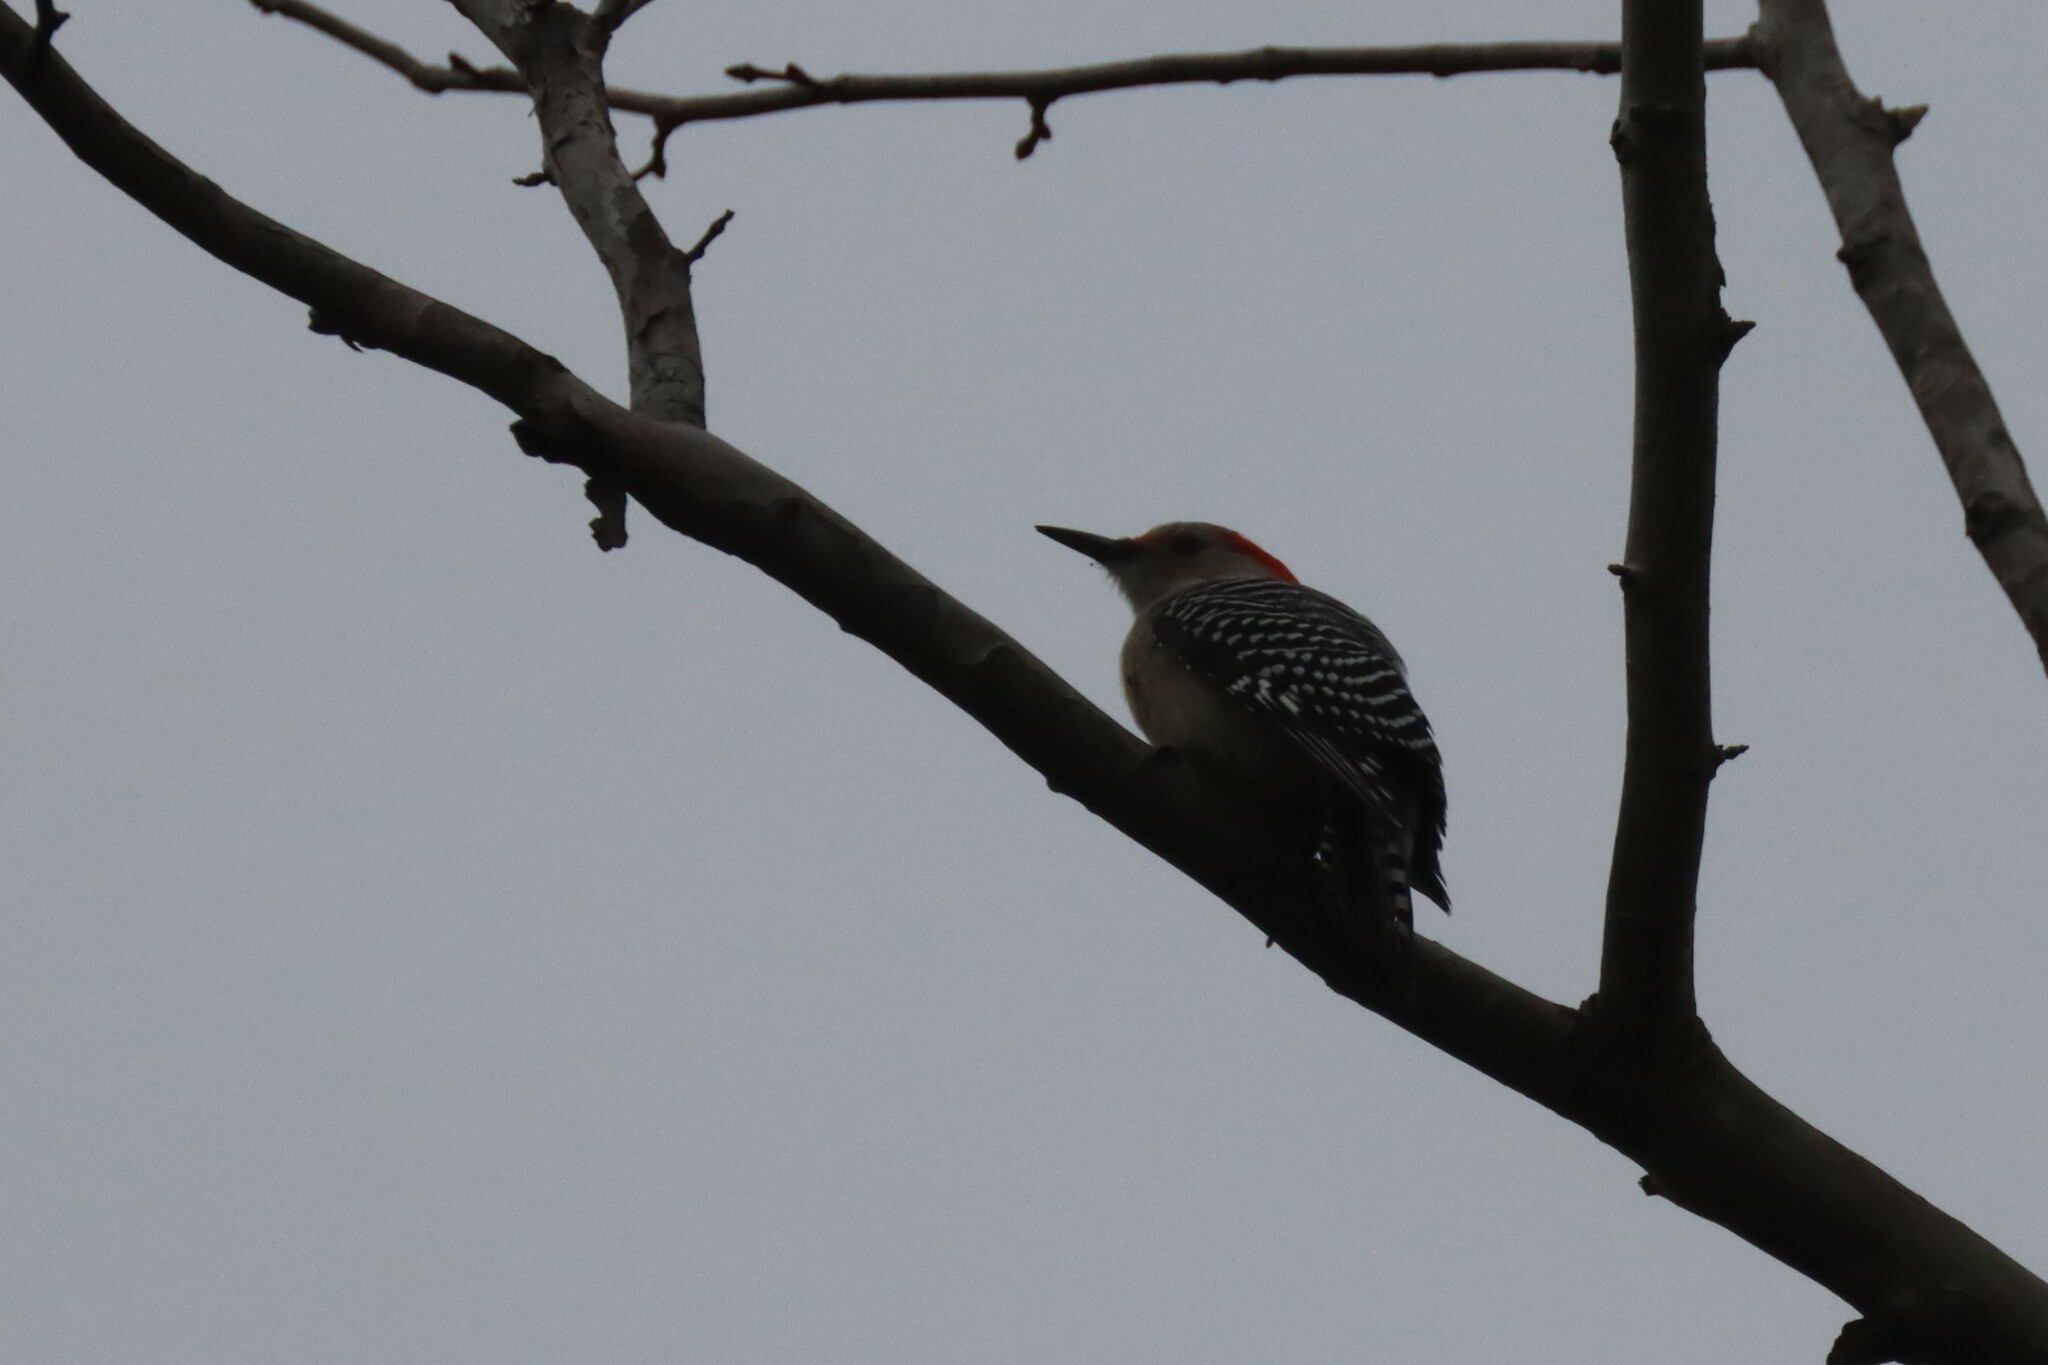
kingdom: Animalia
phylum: Chordata
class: Aves
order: Piciformes
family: Picidae
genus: Melanerpes
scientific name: Melanerpes carolinus
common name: Red-bellied woodpecker
